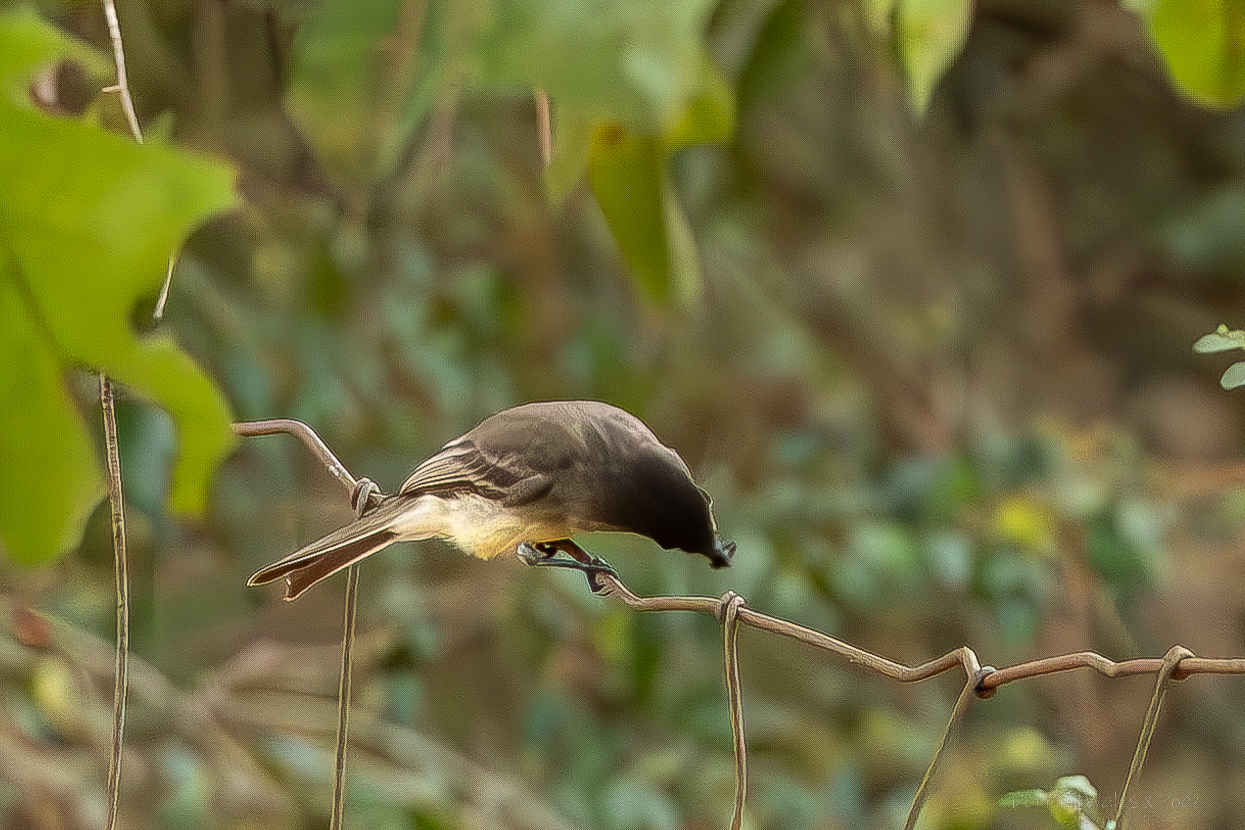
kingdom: Animalia
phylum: Chordata
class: Aves
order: Passeriformes
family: Tyrannidae
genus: Sayornis
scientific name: Sayornis phoebe
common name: Eastern phoebe
